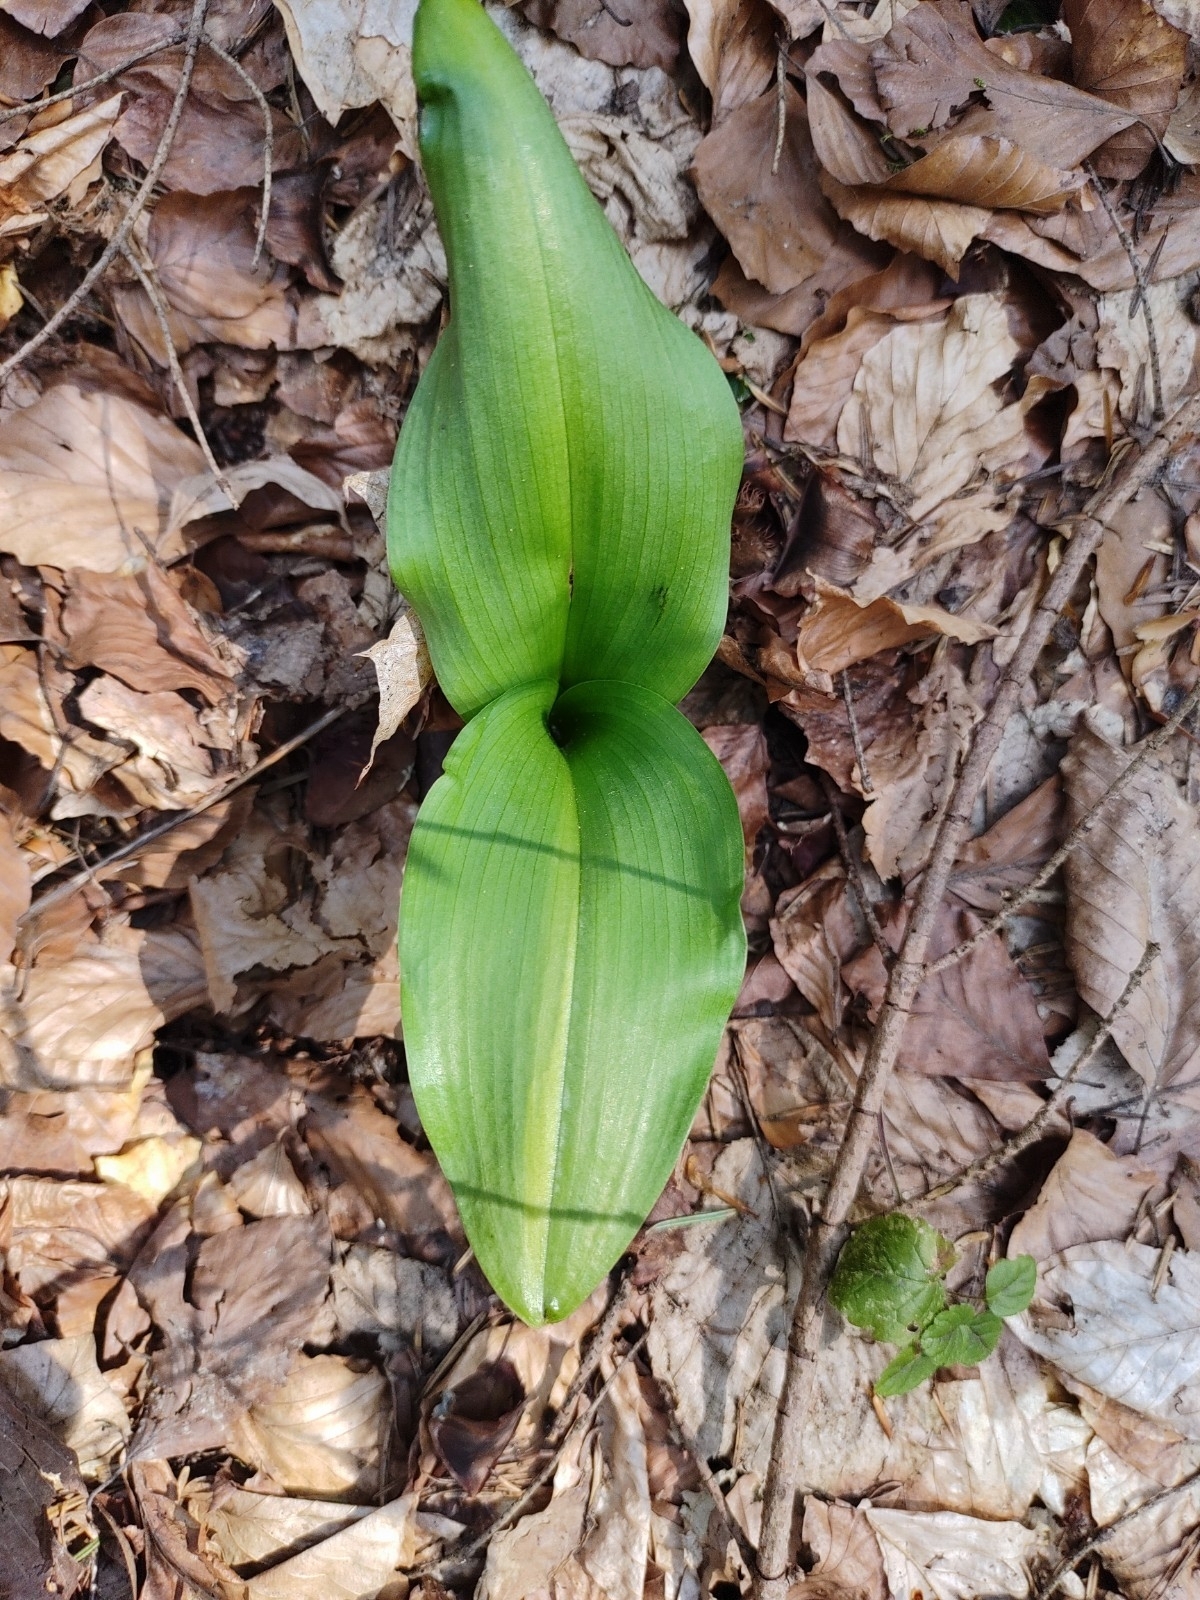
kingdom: Plantae
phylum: Tracheophyta
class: Liliopsida
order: Asparagales
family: Amaryllidaceae
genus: Allium
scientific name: Allium ursinum
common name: Ramsons
